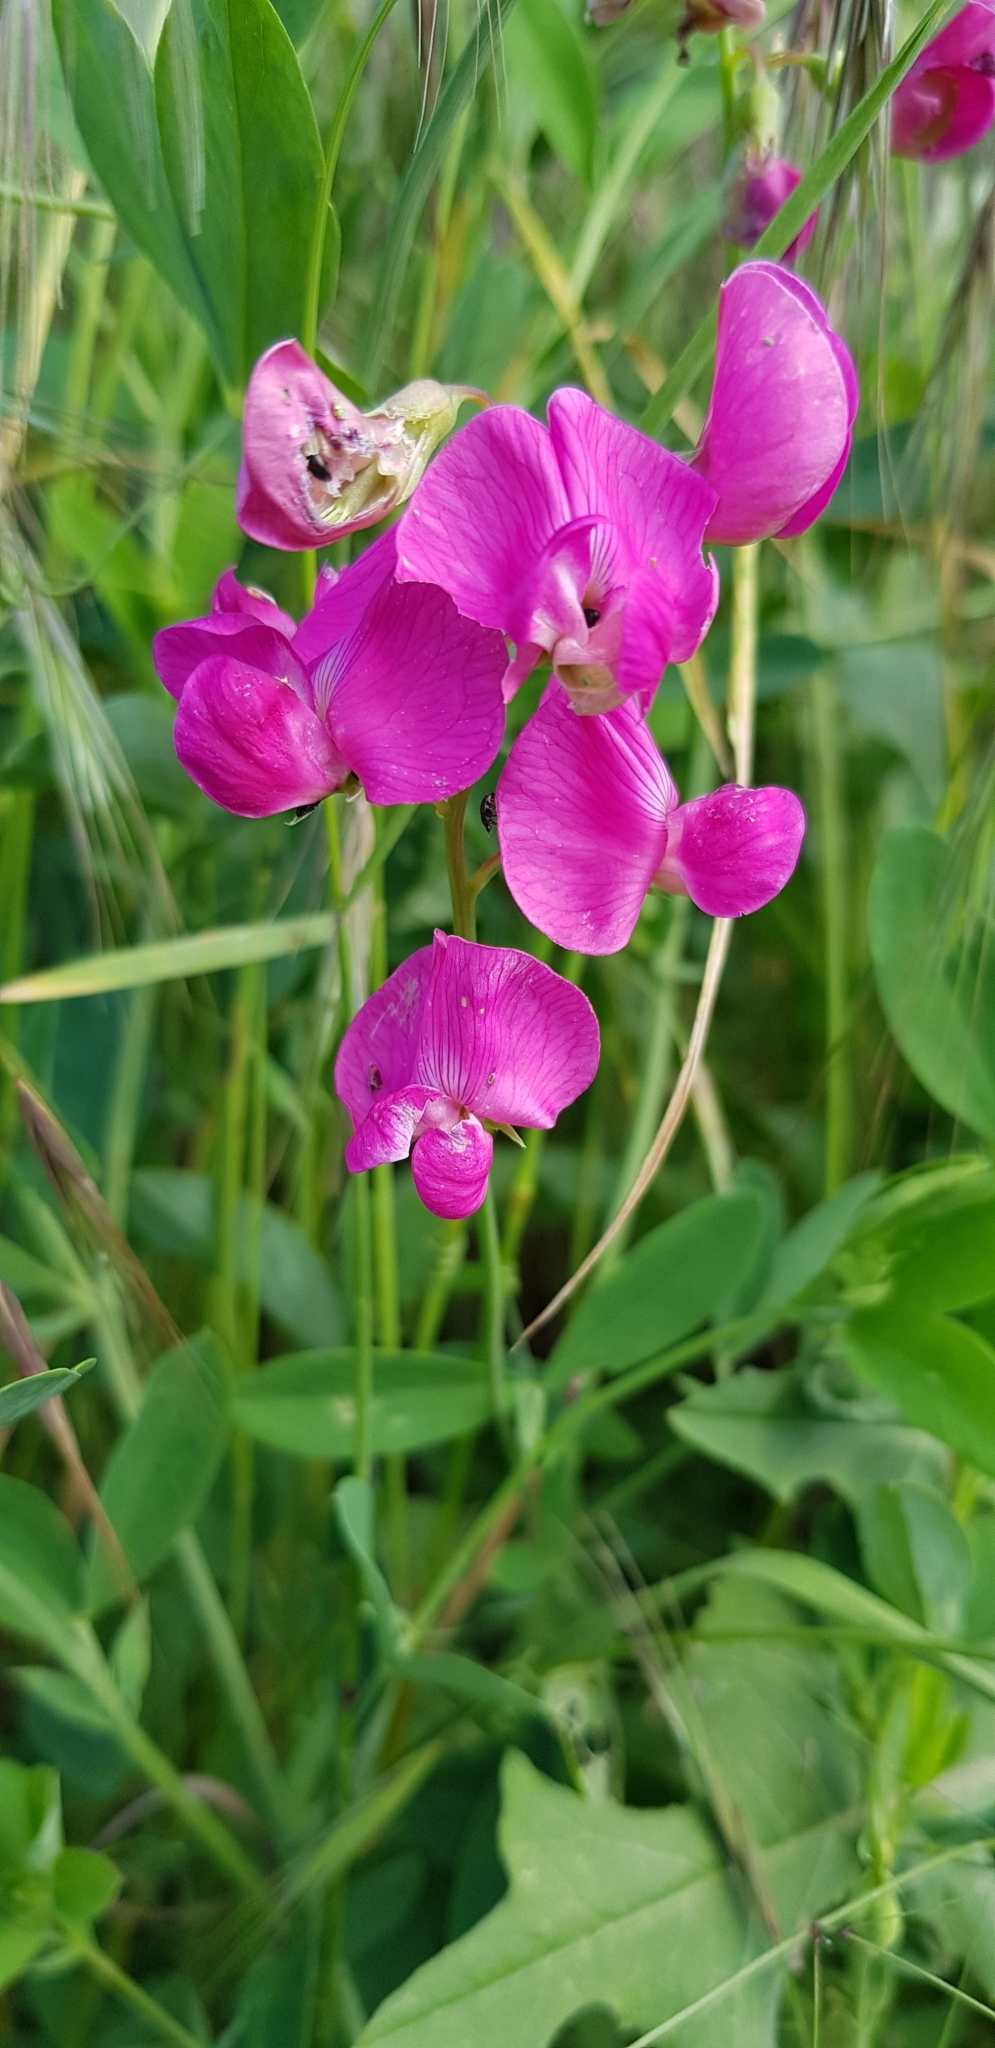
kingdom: Plantae
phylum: Tracheophyta
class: Magnoliopsida
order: Fabales
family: Fabaceae
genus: Lathyrus
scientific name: Lathyrus tuberosus
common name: Tuberous pea
